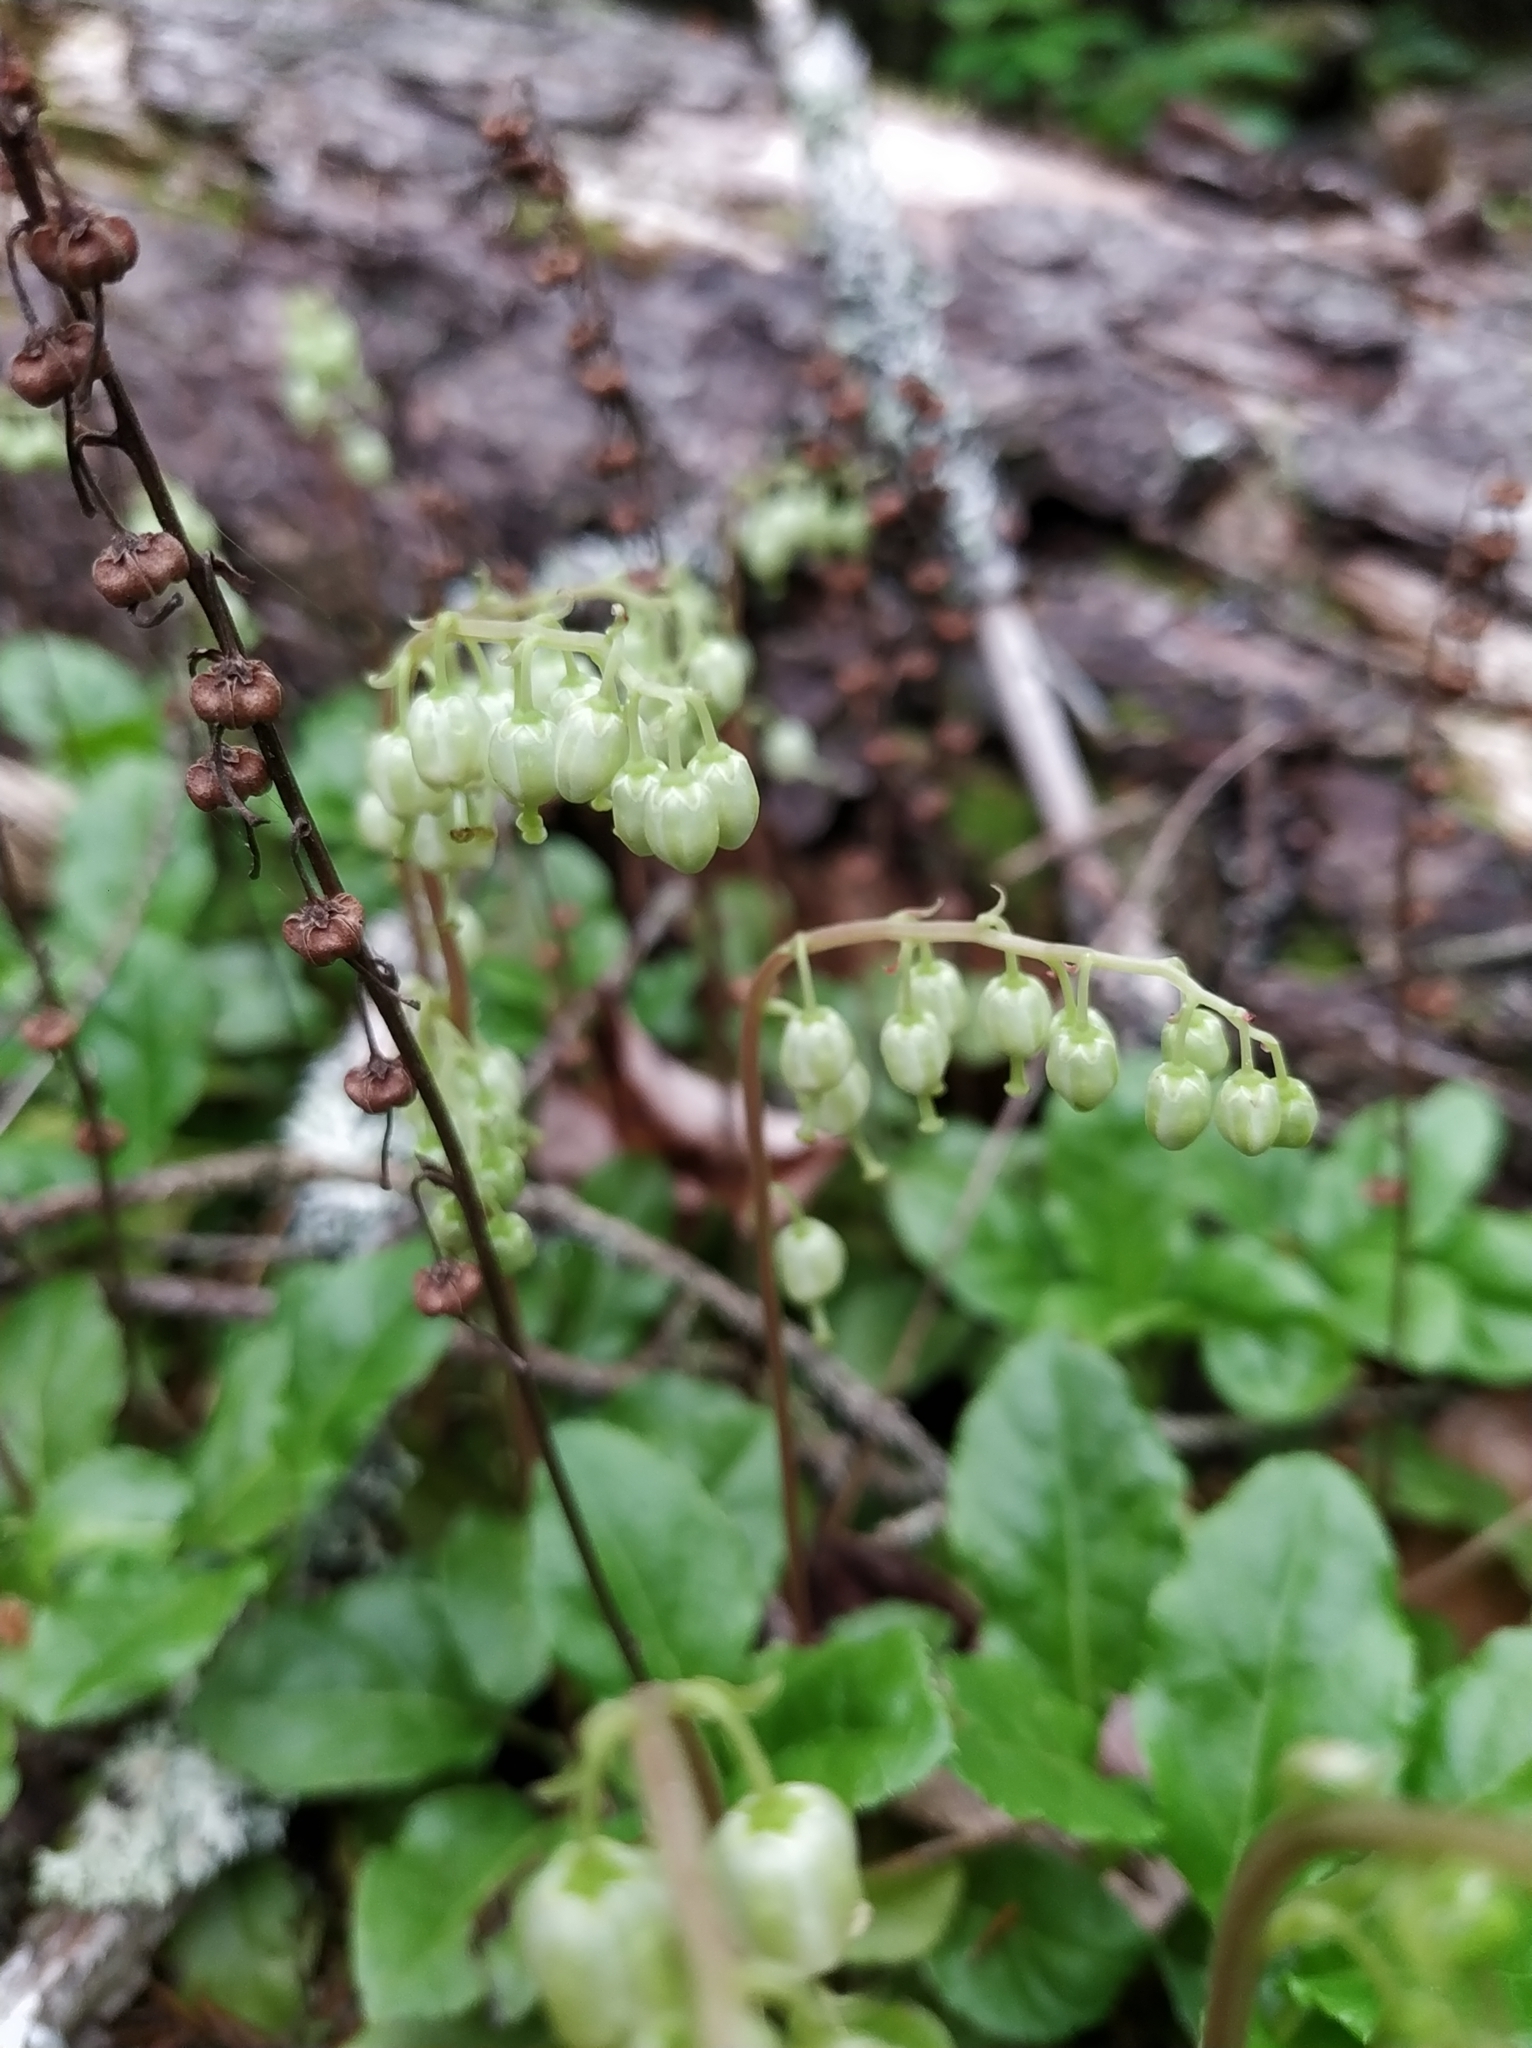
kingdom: Plantae
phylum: Tracheophyta
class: Magnoliopsida
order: Ericales
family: Ericaceae
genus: Orthilia
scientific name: Orthilia secunda
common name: One-sided orthilia
